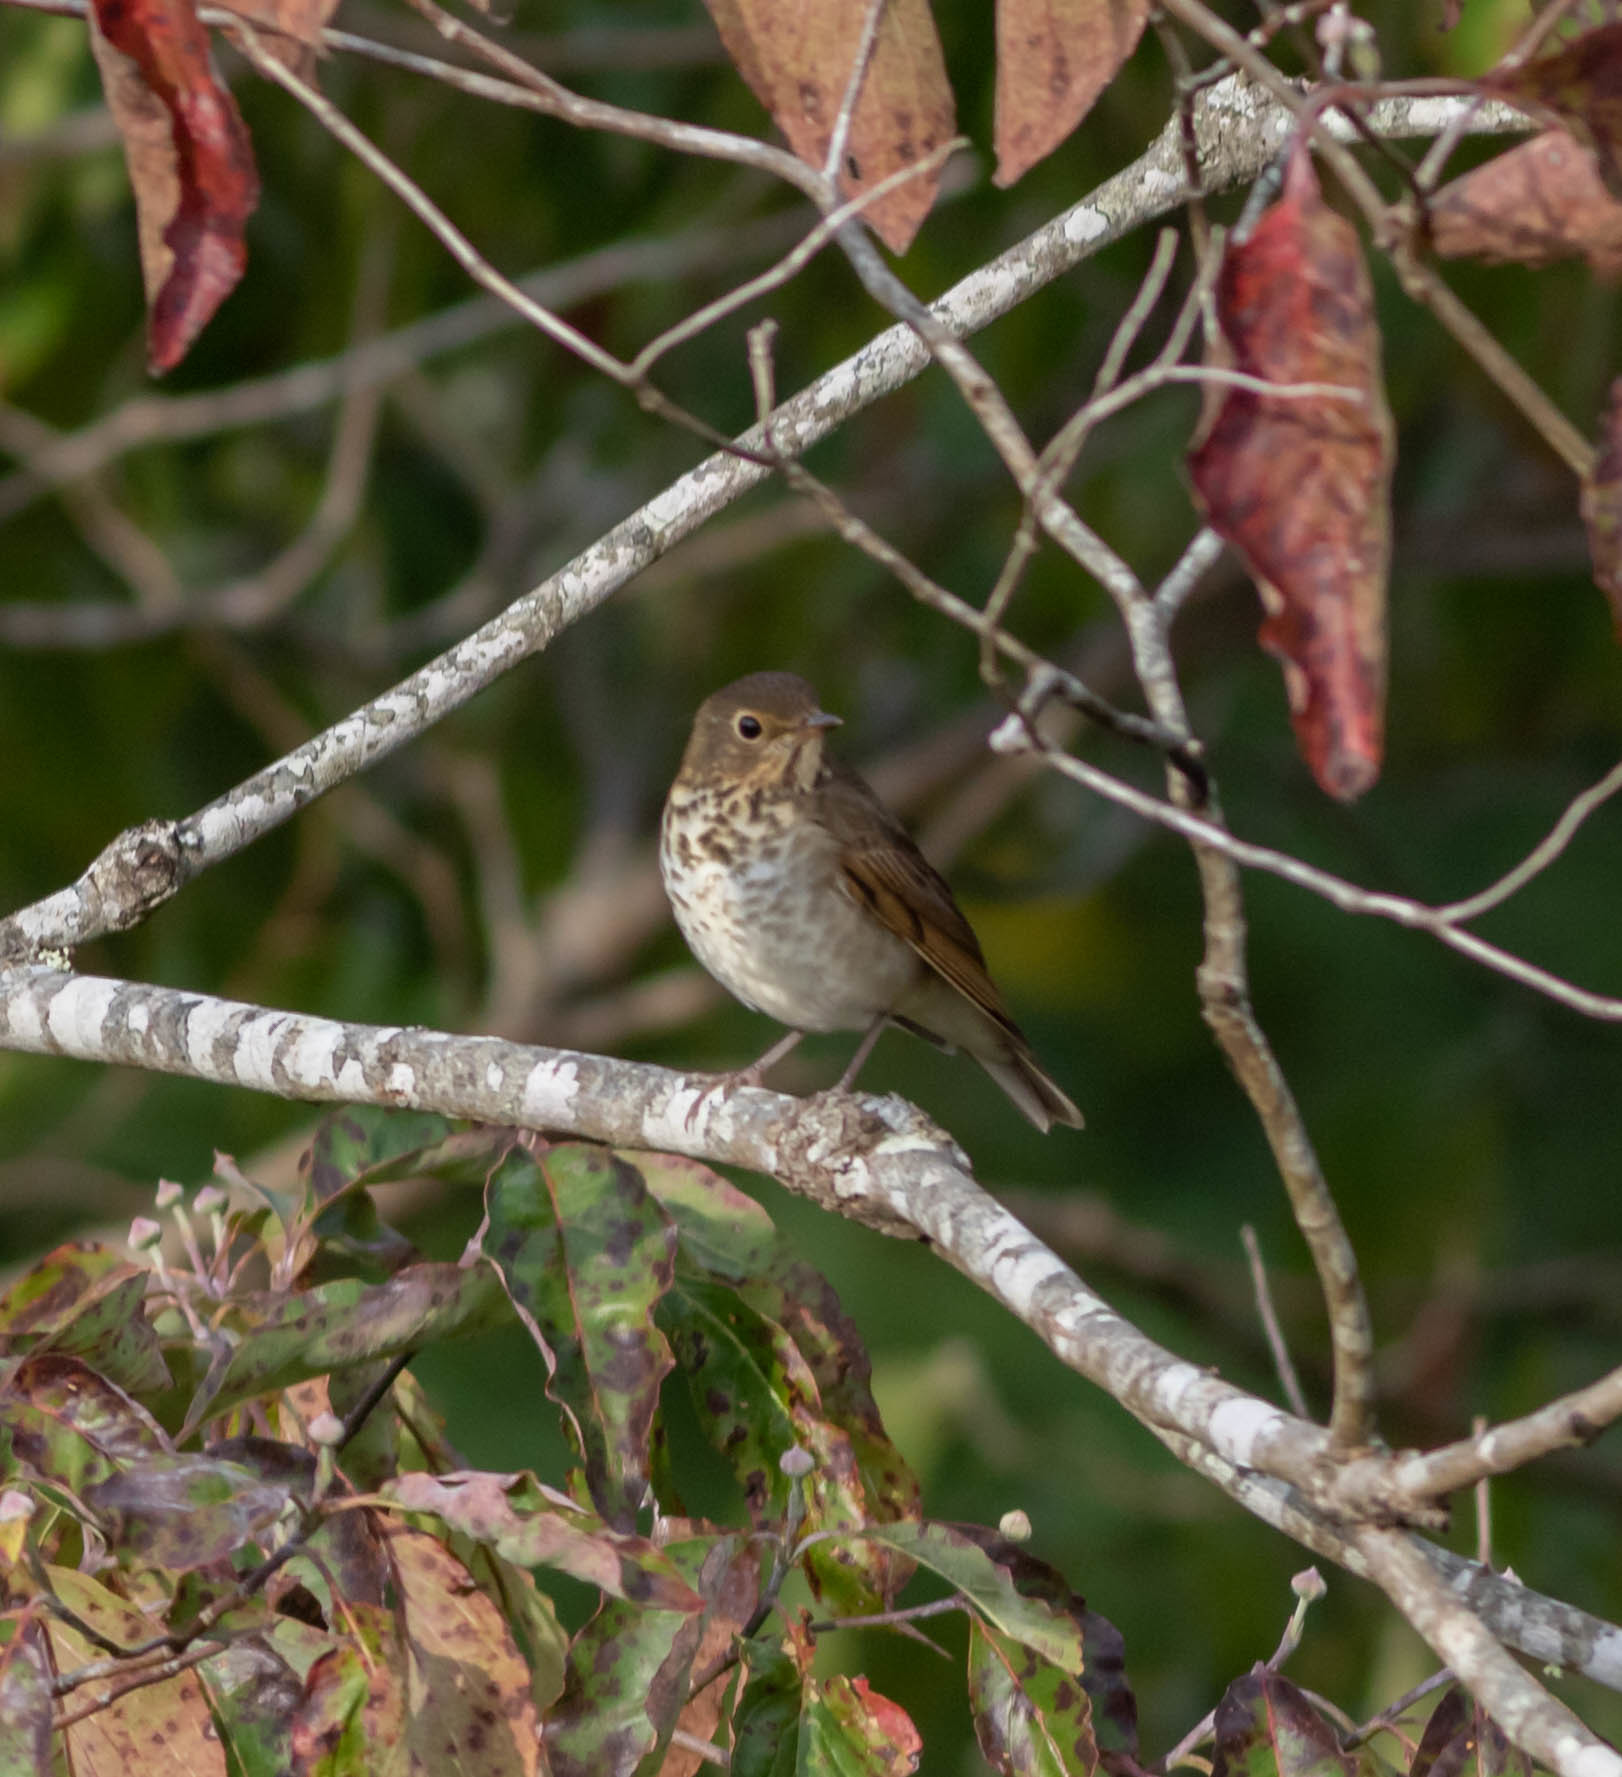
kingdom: Animalia
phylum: Chordata
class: Aves
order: Passeriformes
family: Turdidae
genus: Catharus
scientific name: Catharus ustulatus
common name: Swainson's thrush
